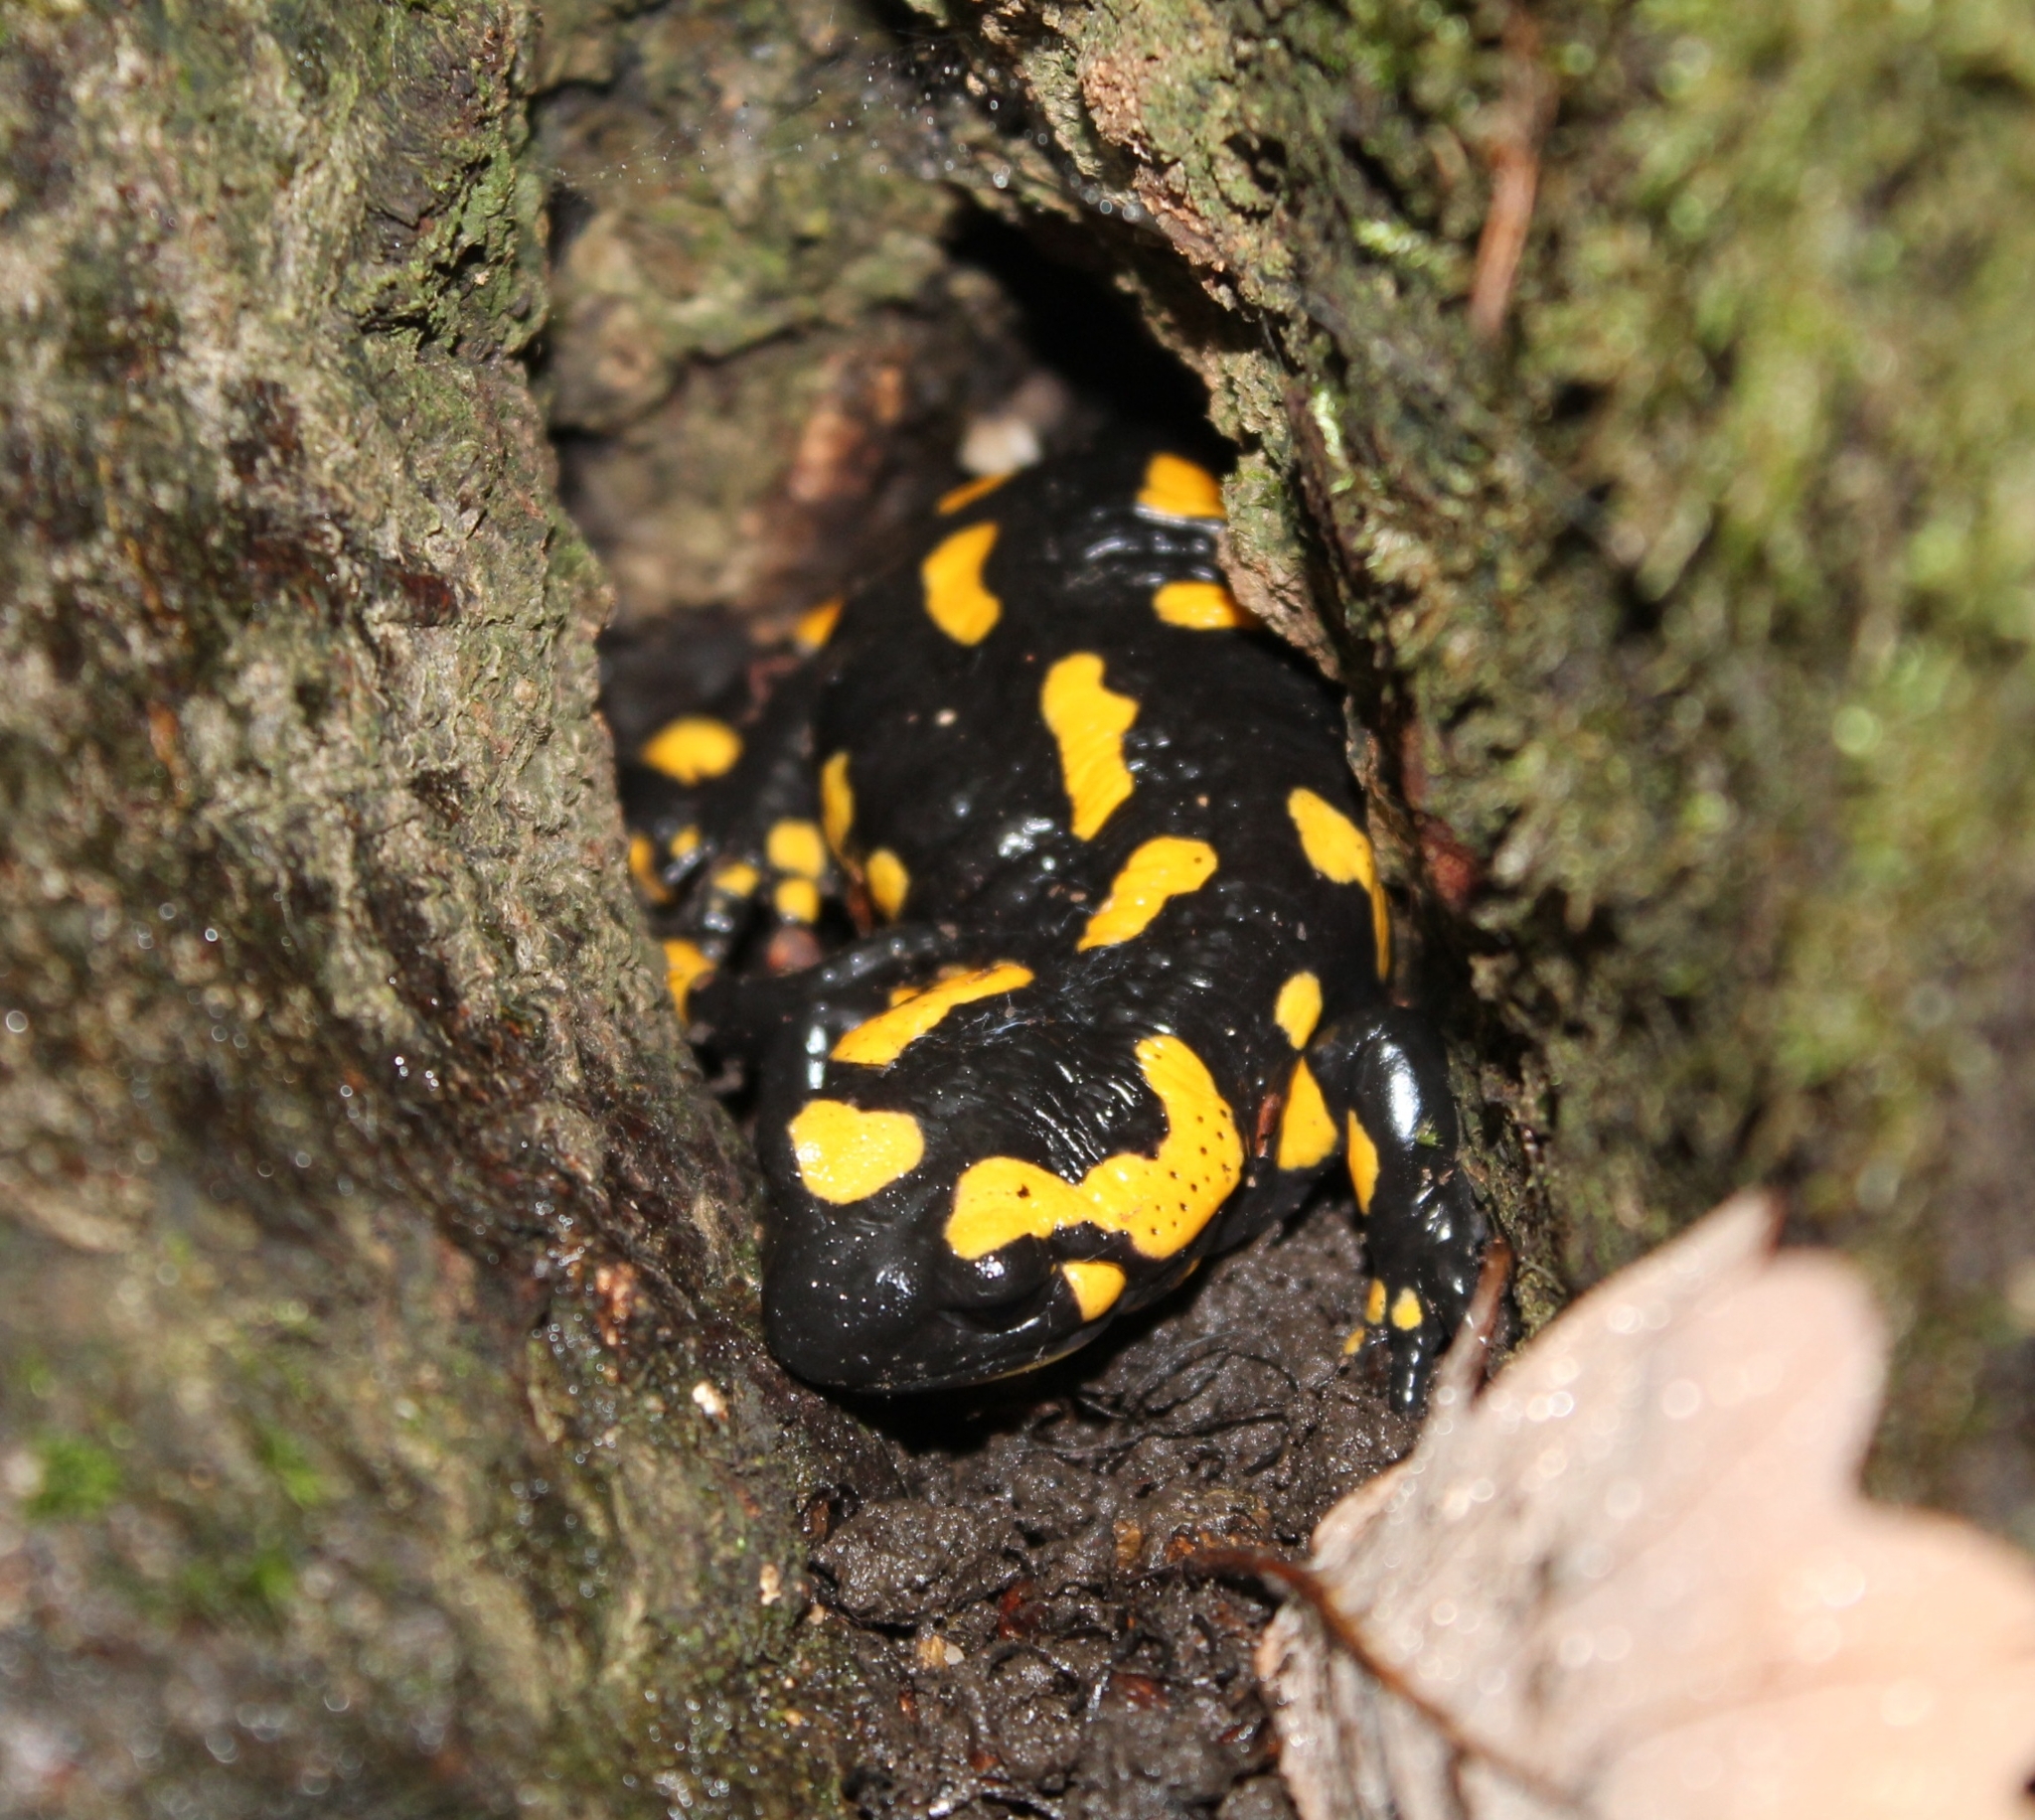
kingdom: Animalia
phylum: Chordata
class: Amphibia
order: Caudata
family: Salamandridae
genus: Salamandra
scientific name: Salamandra salamandra
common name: Fire salamander
